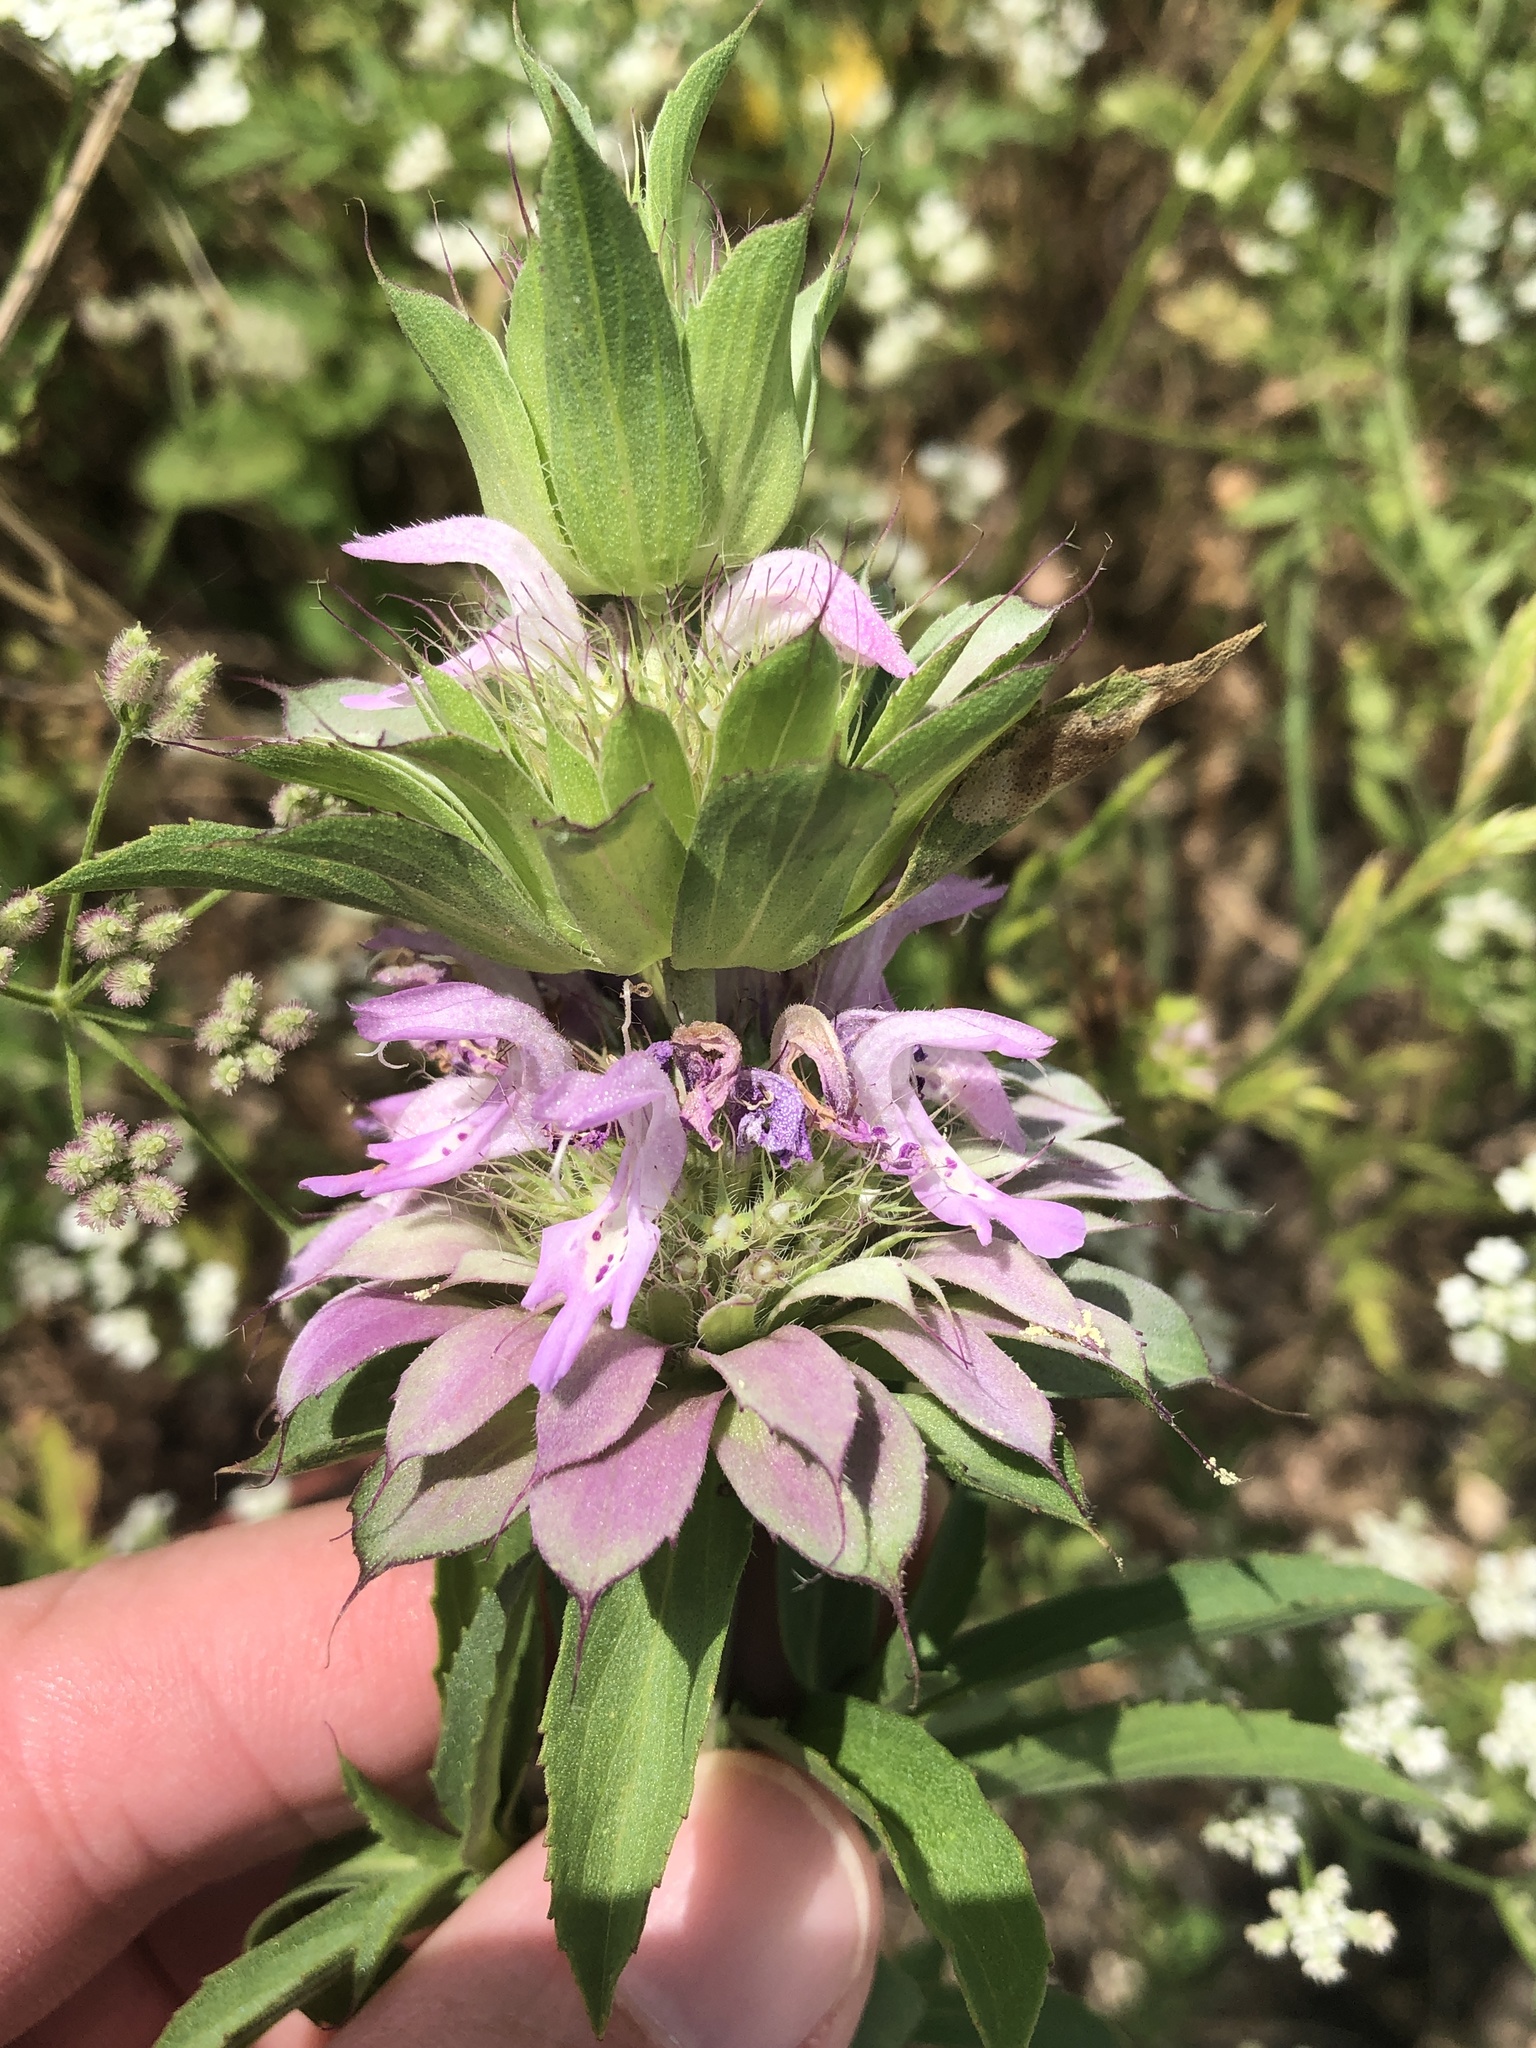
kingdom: Plantae
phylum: Tracheophyta
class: Magnoliopsida
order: Lamiales
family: Lamiaceae
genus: Monarda
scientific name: Monarda citriodora
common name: Lemon beebalm
